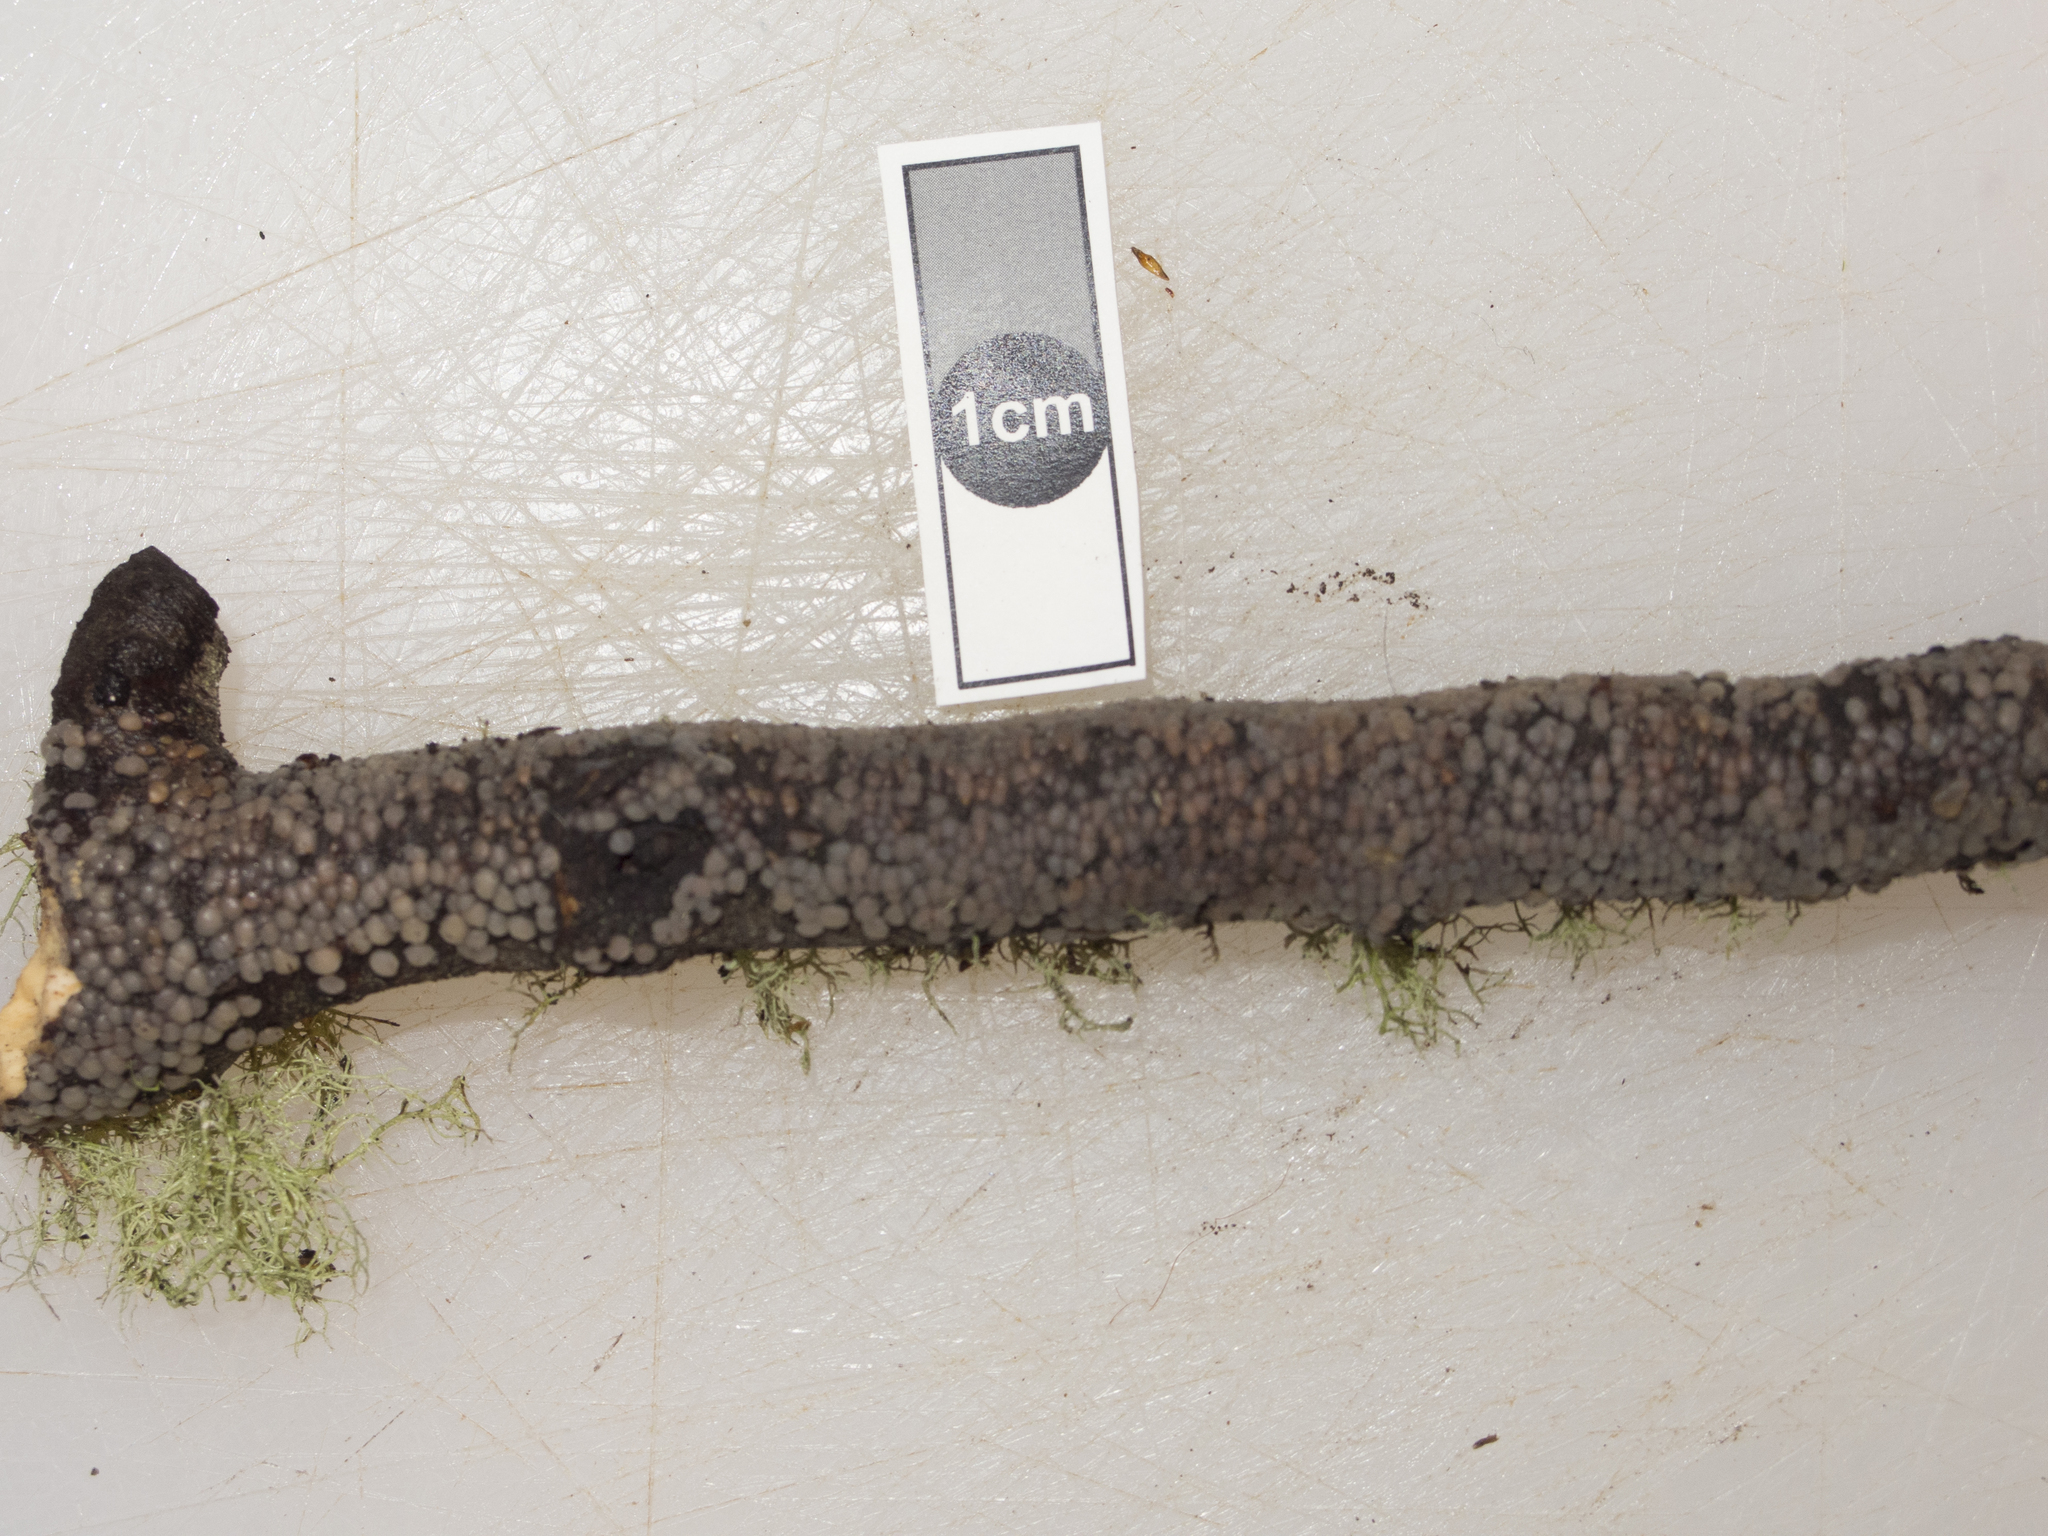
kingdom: Fungi
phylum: Basidiomycota
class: Agaricomycetes
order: Auriculariales
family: Auriculariaceae
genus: Exidia
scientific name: Exidia
